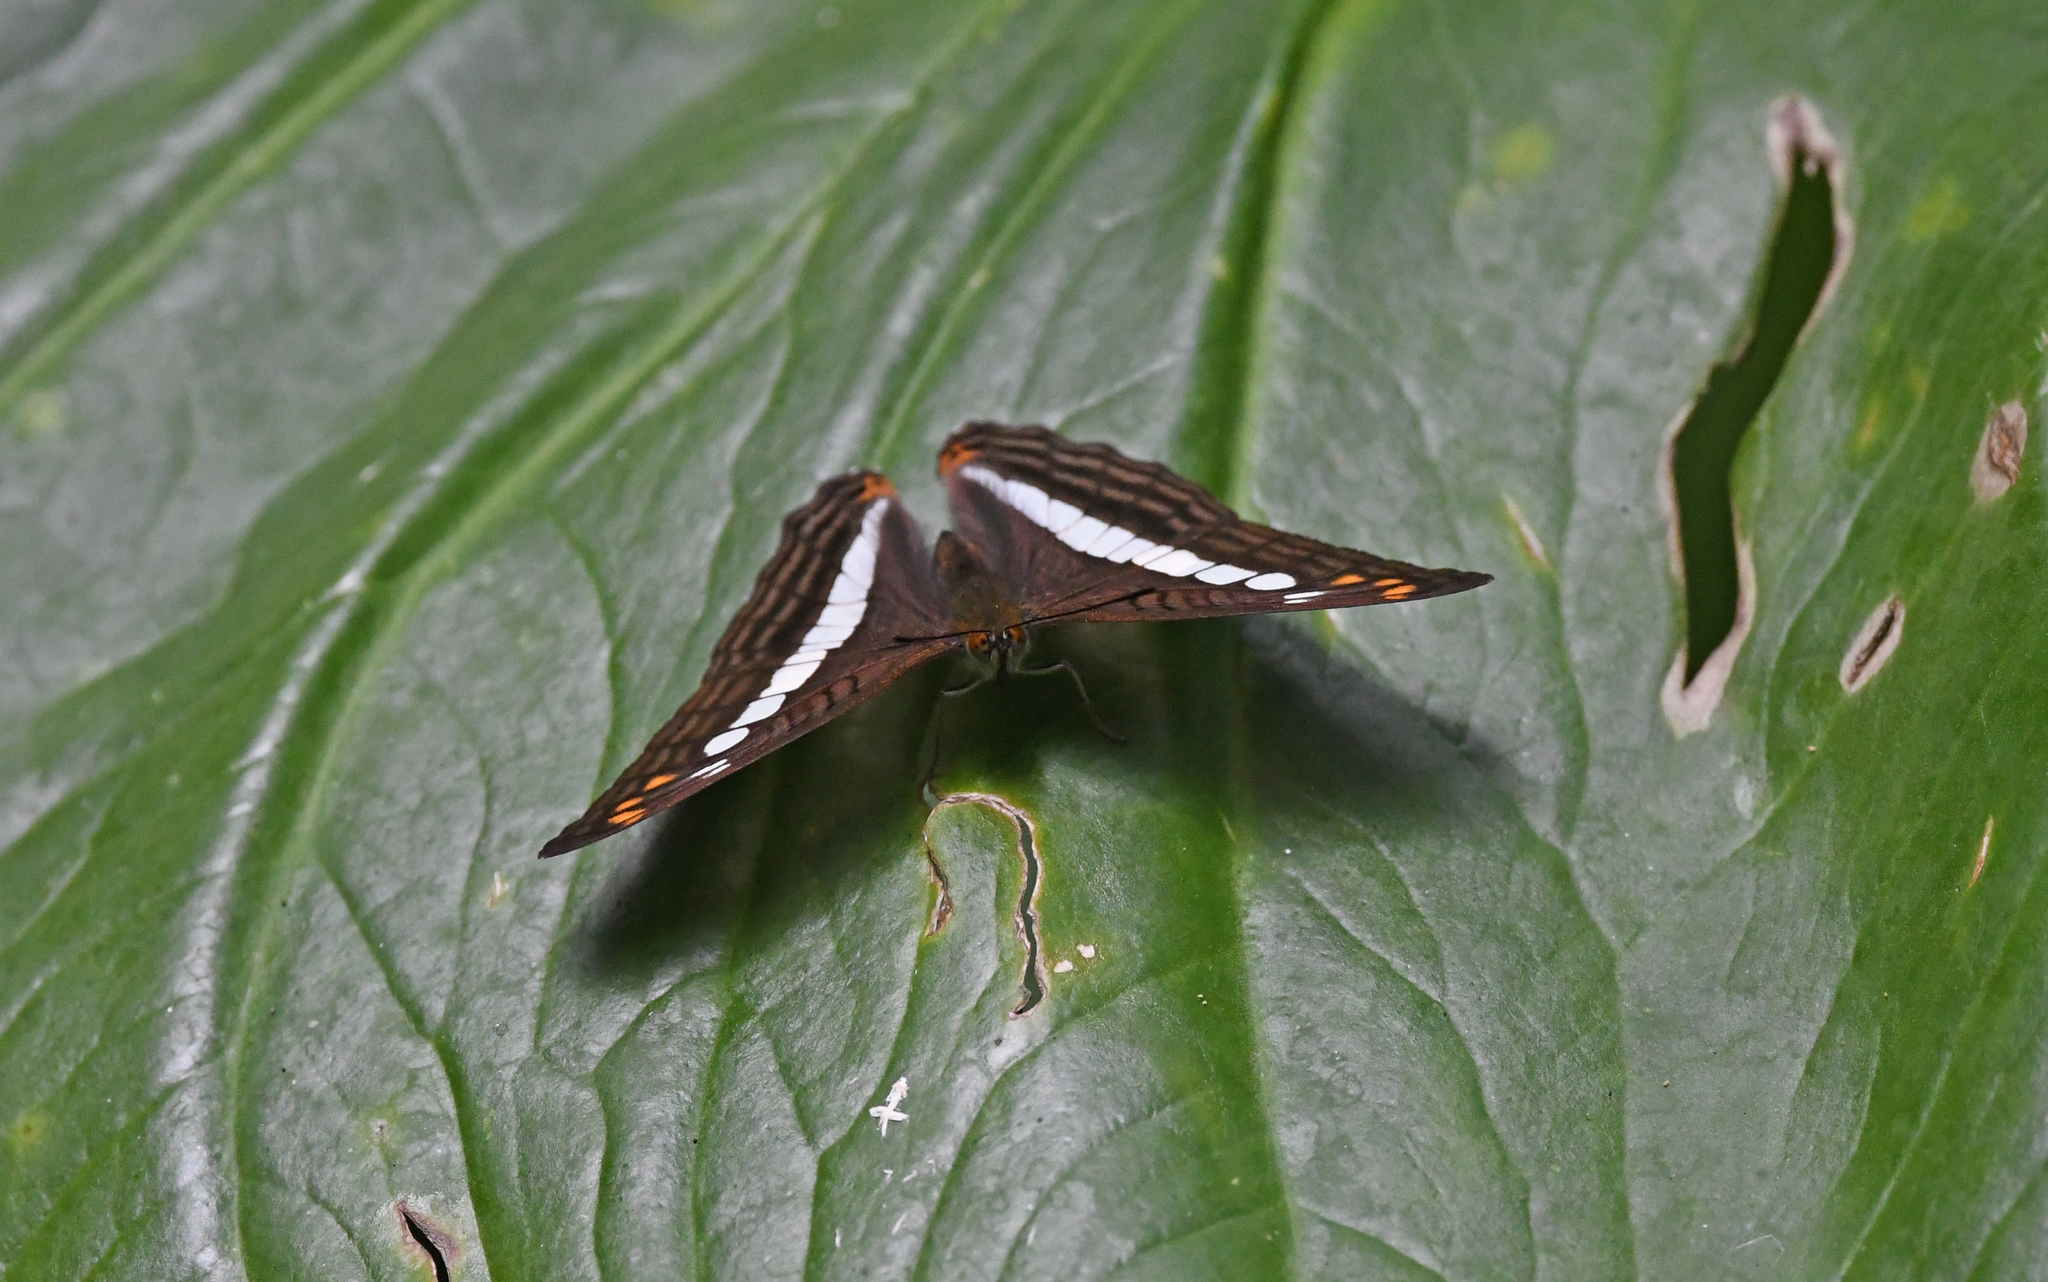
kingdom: Animalia
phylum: Arthropoda
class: Insecta
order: Lepidoptera
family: Nymphalidae
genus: Limenitis
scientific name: Limenitis alala
